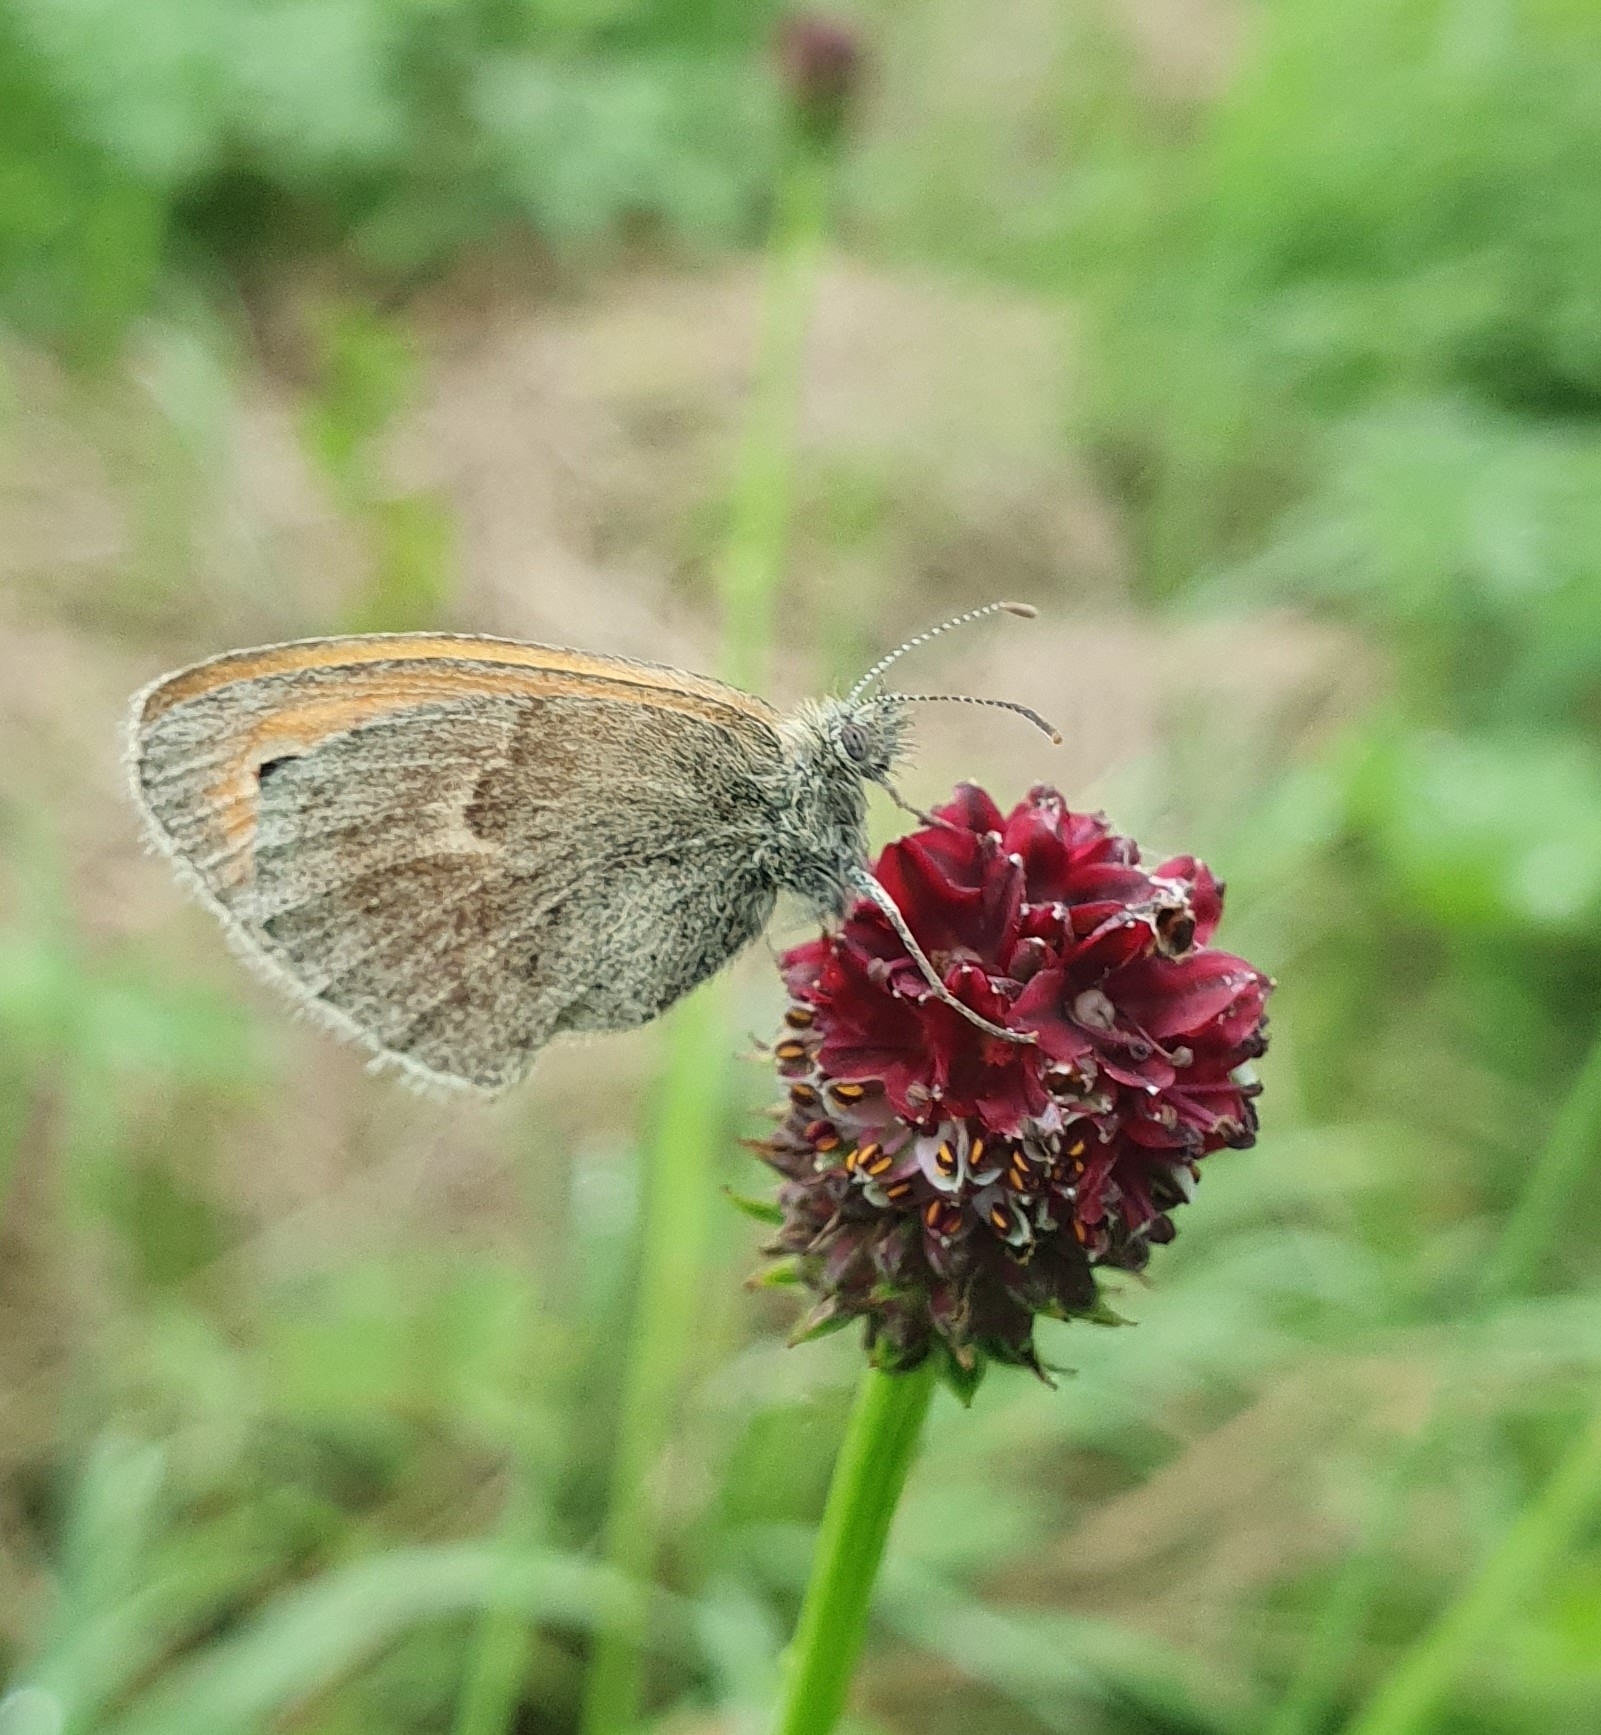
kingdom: Animalia
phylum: Arthropoda
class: Insecta
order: Lepidoptera
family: Nymphalidae
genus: Coenonympha
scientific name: Coenonympha pamphilus
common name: Small heath
